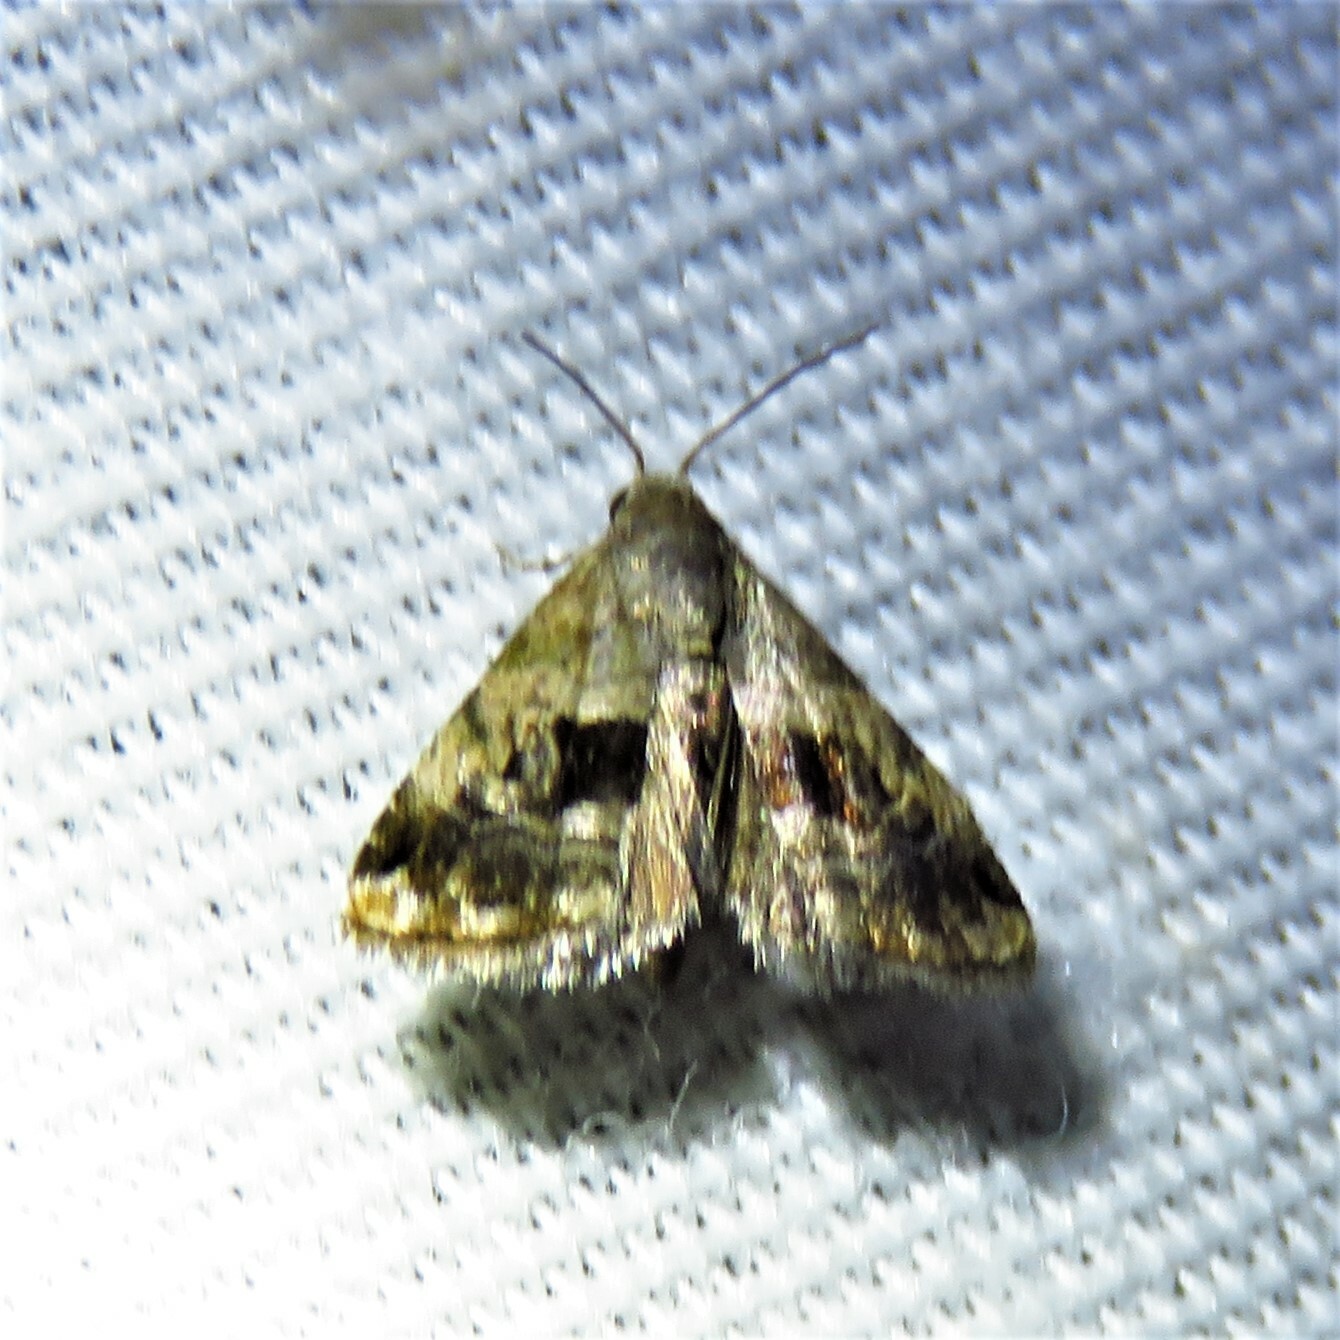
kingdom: Animalia
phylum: Arthropoda
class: Insecta
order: Lepidoptera
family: Noctuidae
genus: Tripudia
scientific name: Tripudia quadrifera
